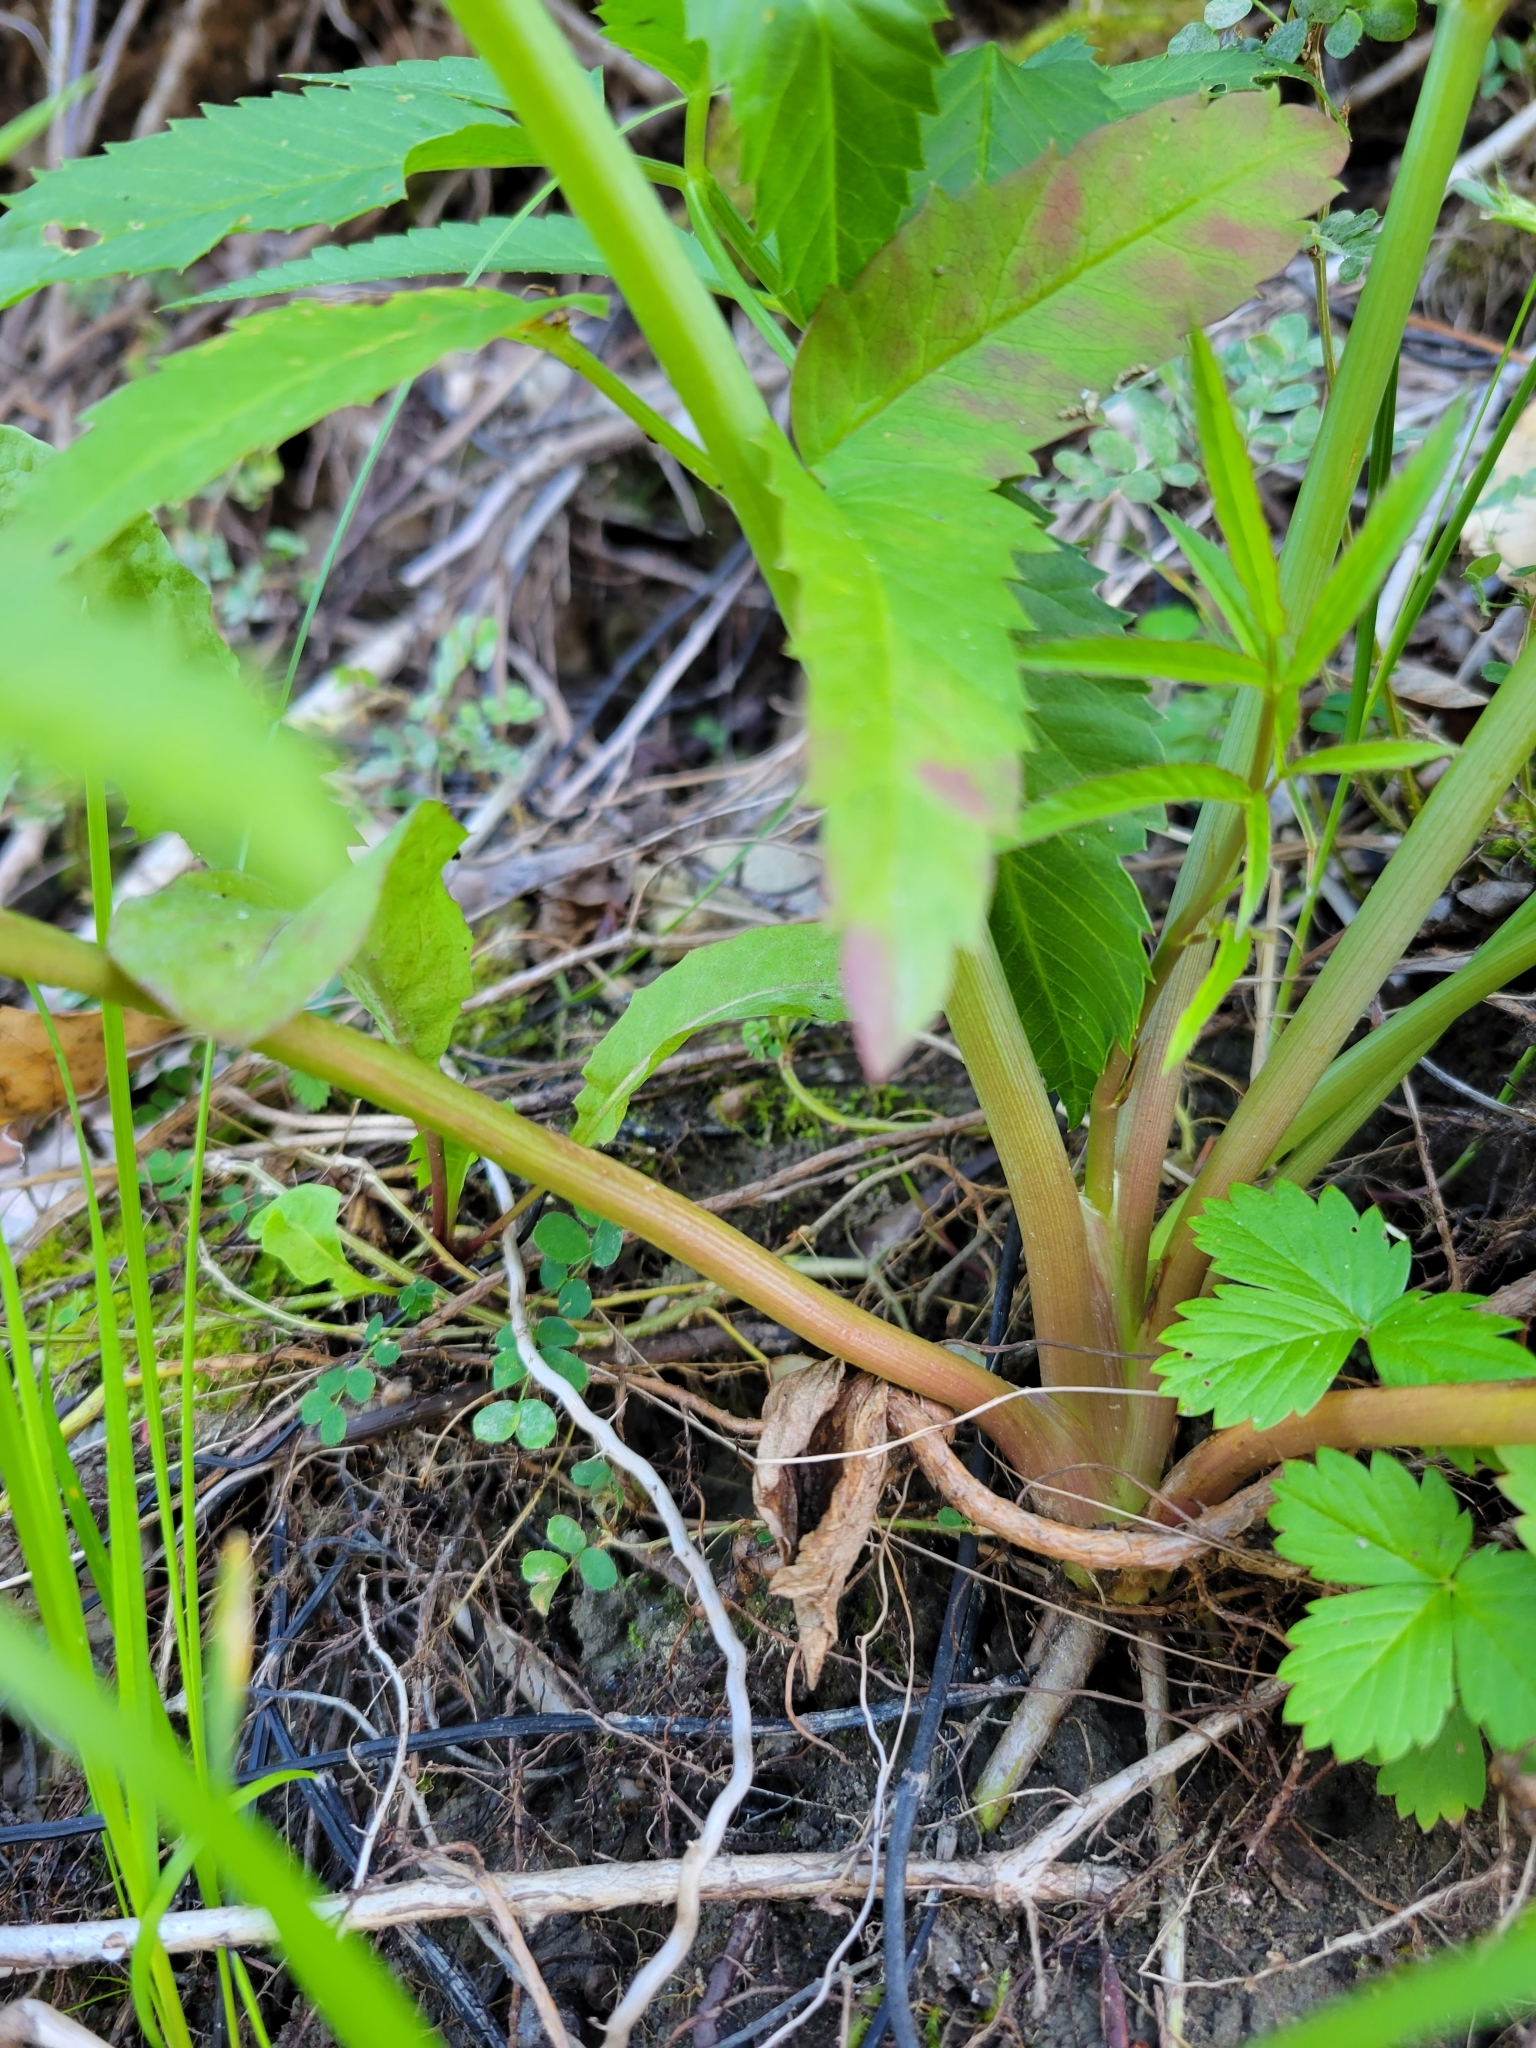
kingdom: Plantae
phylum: Tracheophyta
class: Magnoliopsida
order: Apiales
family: Apiaceae
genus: Cicuta
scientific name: Cicuta maculata
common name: Spotted cowbane
